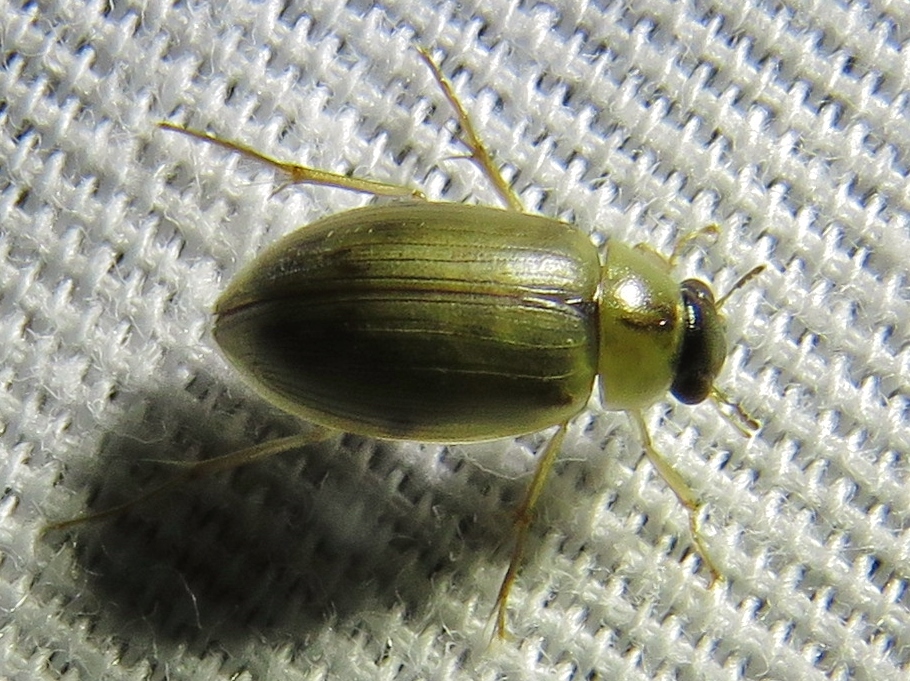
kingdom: Animalia
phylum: Arthropoda
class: Insecta
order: Coleoptera
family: Hydrophilidae
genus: Berosus
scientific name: Berosus
